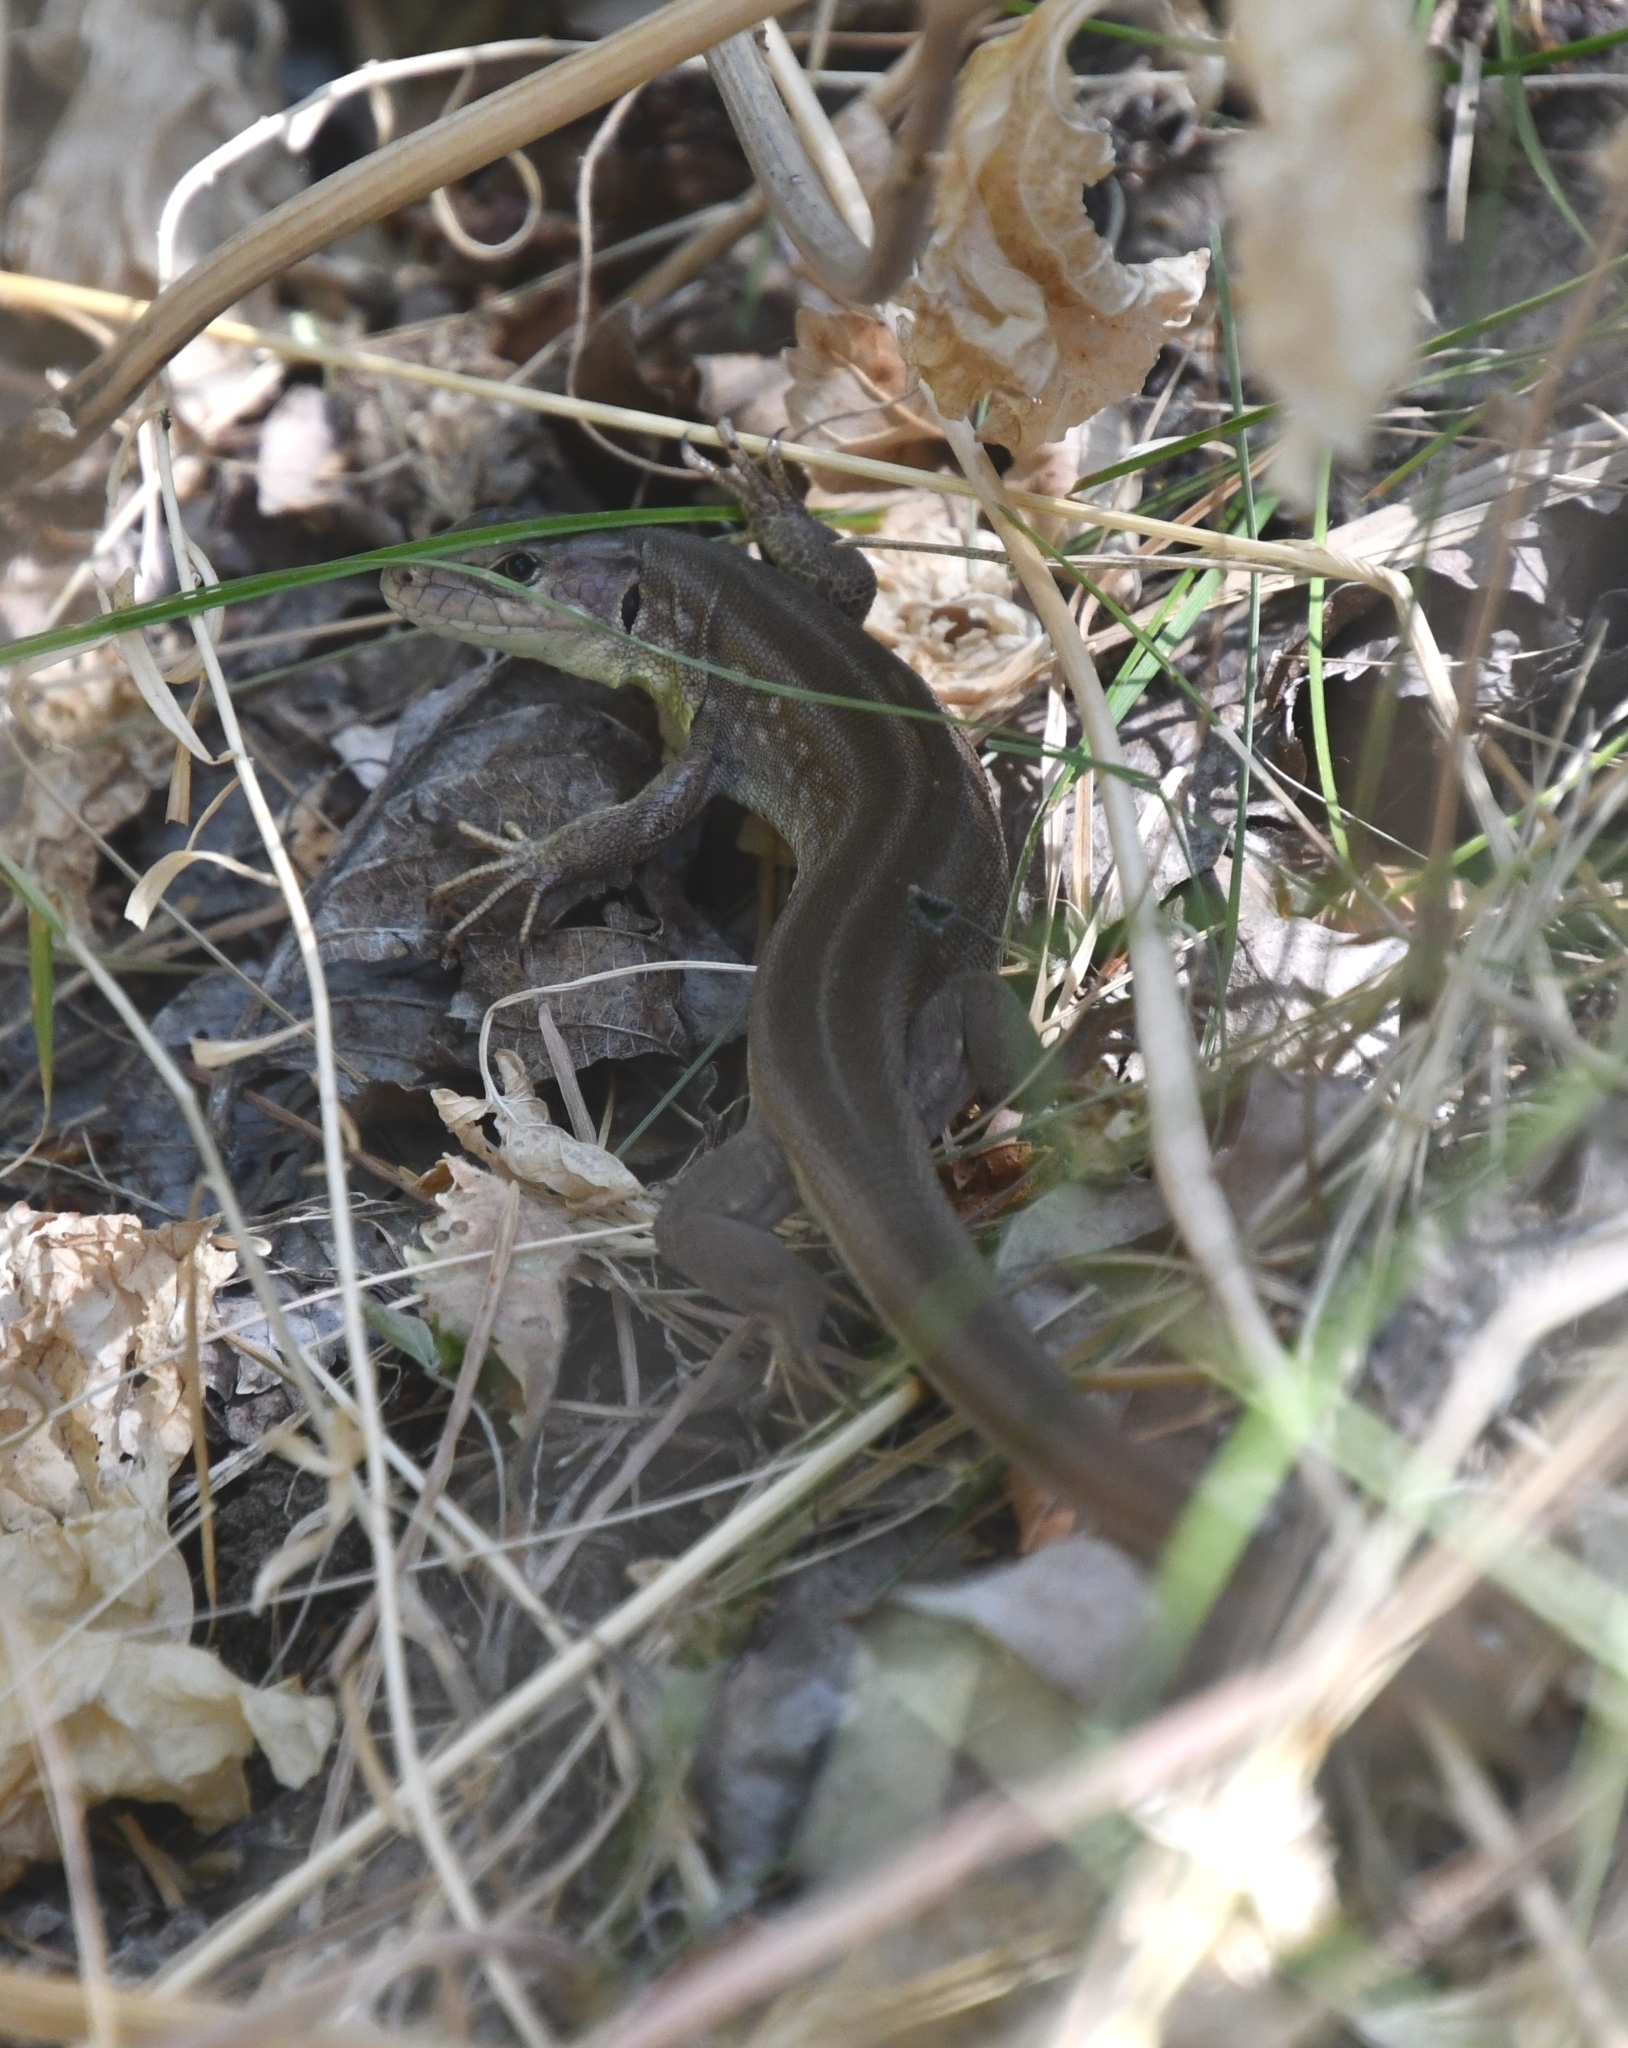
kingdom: Animalia
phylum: Chordata
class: Squamata
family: Lacertidae
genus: Lacerta
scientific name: Lacerta agilis
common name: Sand lizard
